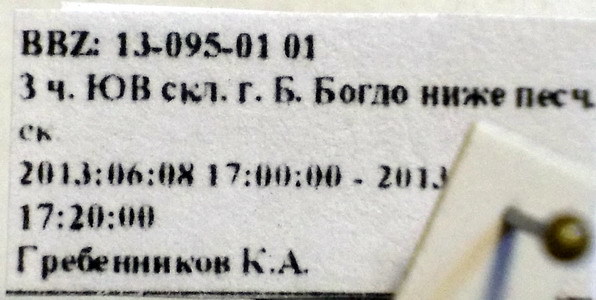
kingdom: Animalia
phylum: Arthropoda
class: Insecta
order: Hymenoptera
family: Formicidae
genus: Cataglyphis
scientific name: Cataglyphis aenescens
